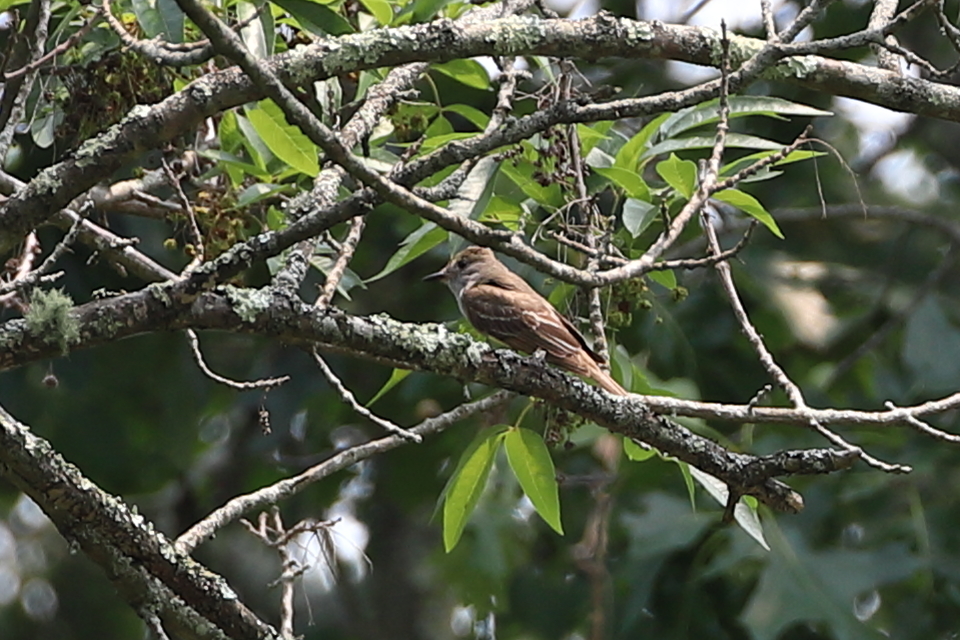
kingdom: Animalia
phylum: Chordata
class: Aves
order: Passeriformes
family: Tyrannidae
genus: Myiarchus
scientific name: Myiarchus crinitus
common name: Great crested flycatcher
